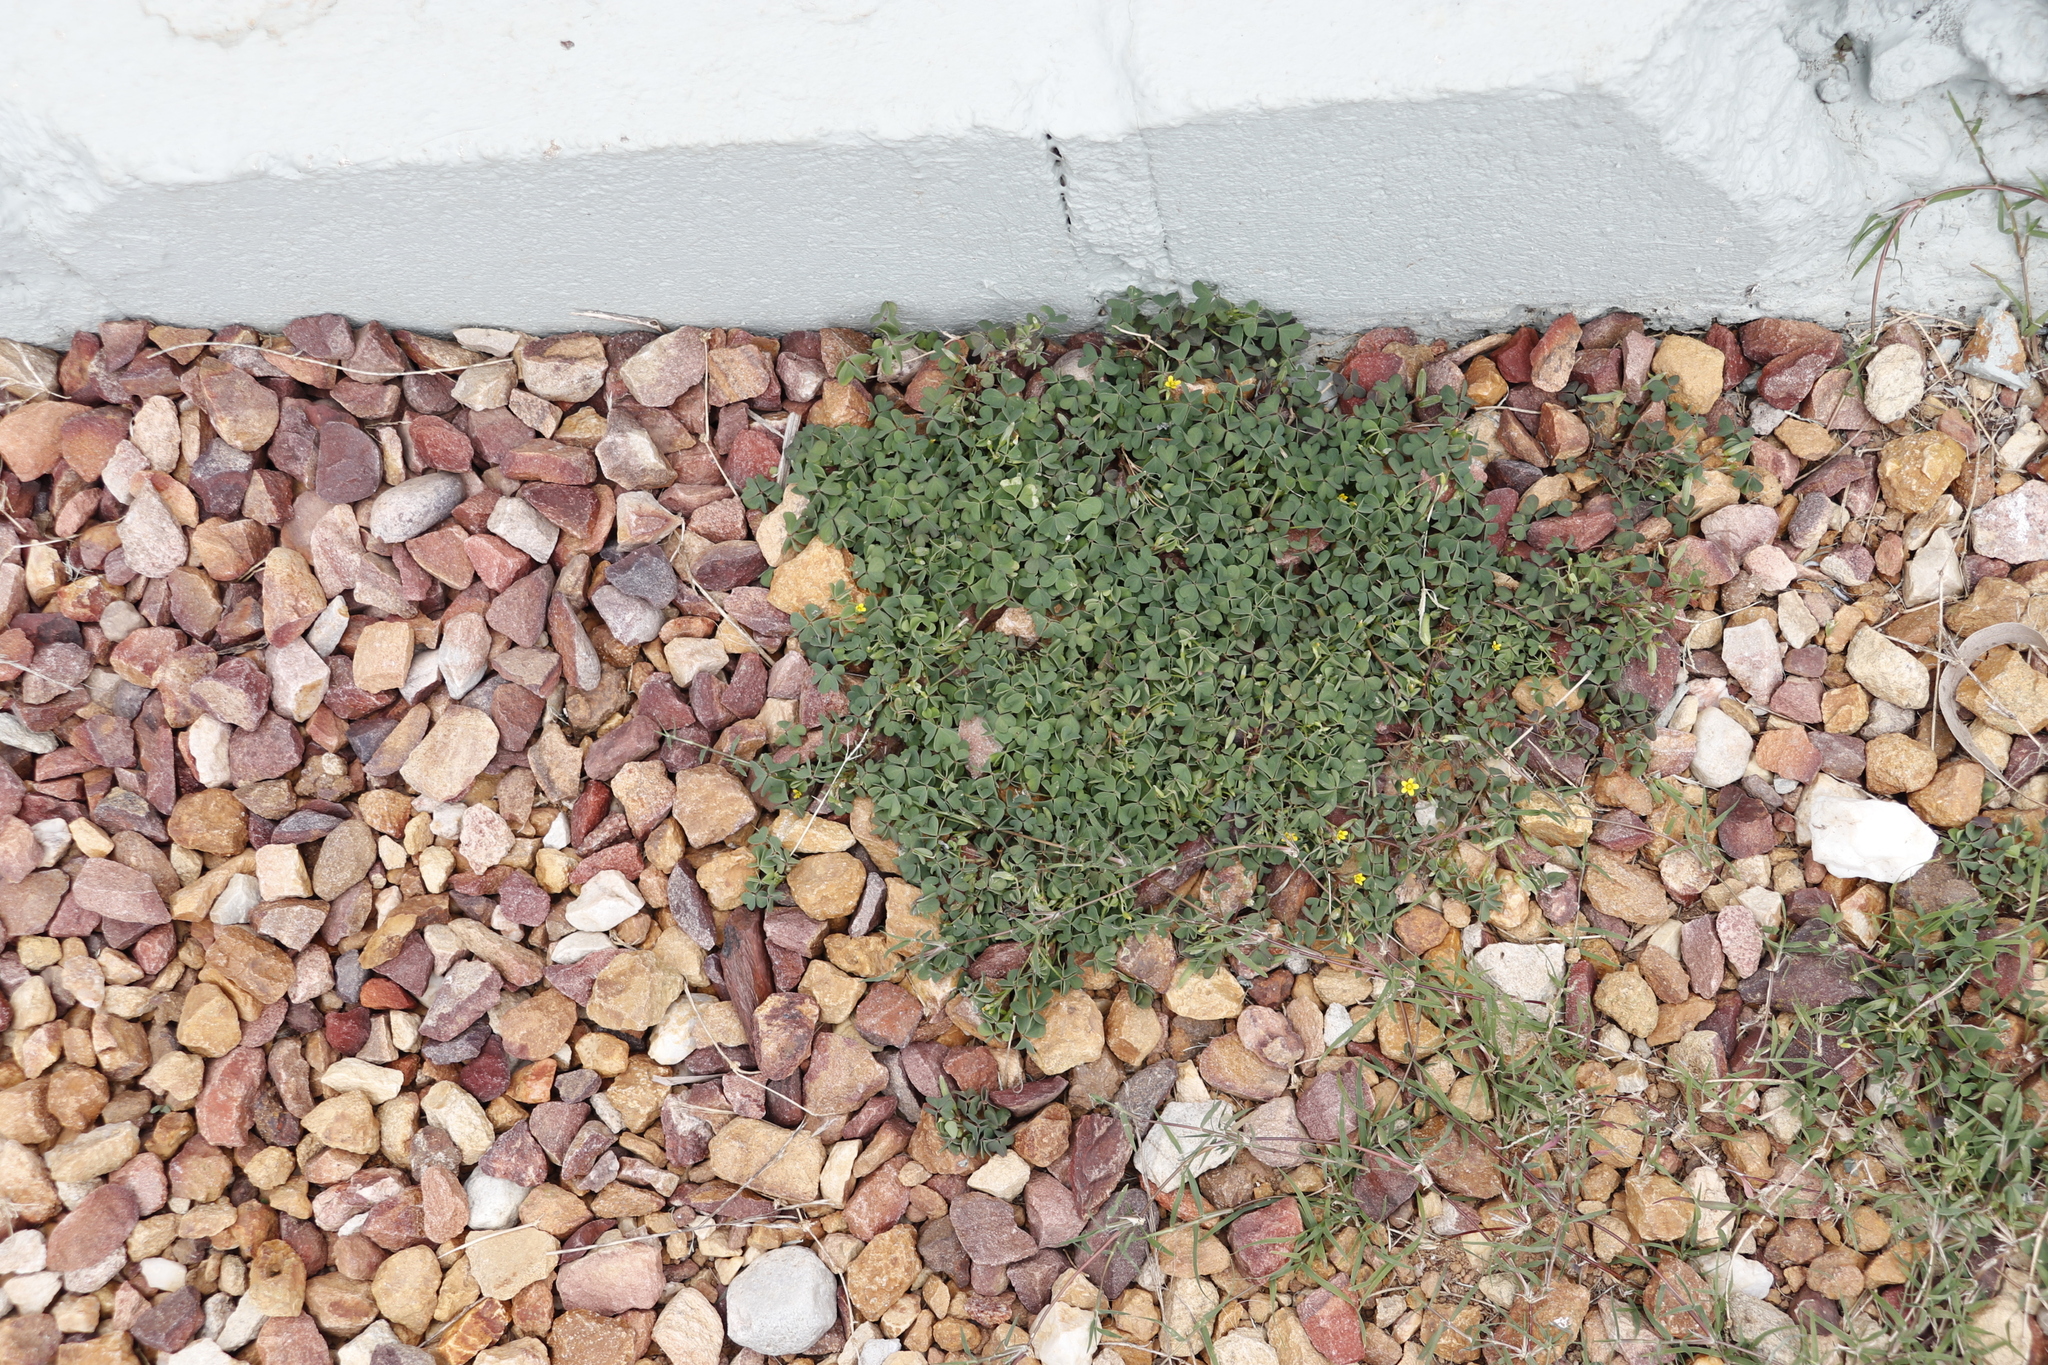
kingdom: Plantae
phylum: Tracheophyta
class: Magnoliopsida
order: Oxalidales
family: Oxalidaceae
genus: Oxalis
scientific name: Oxalis corniculata
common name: Procumbent yellow-sorrel
